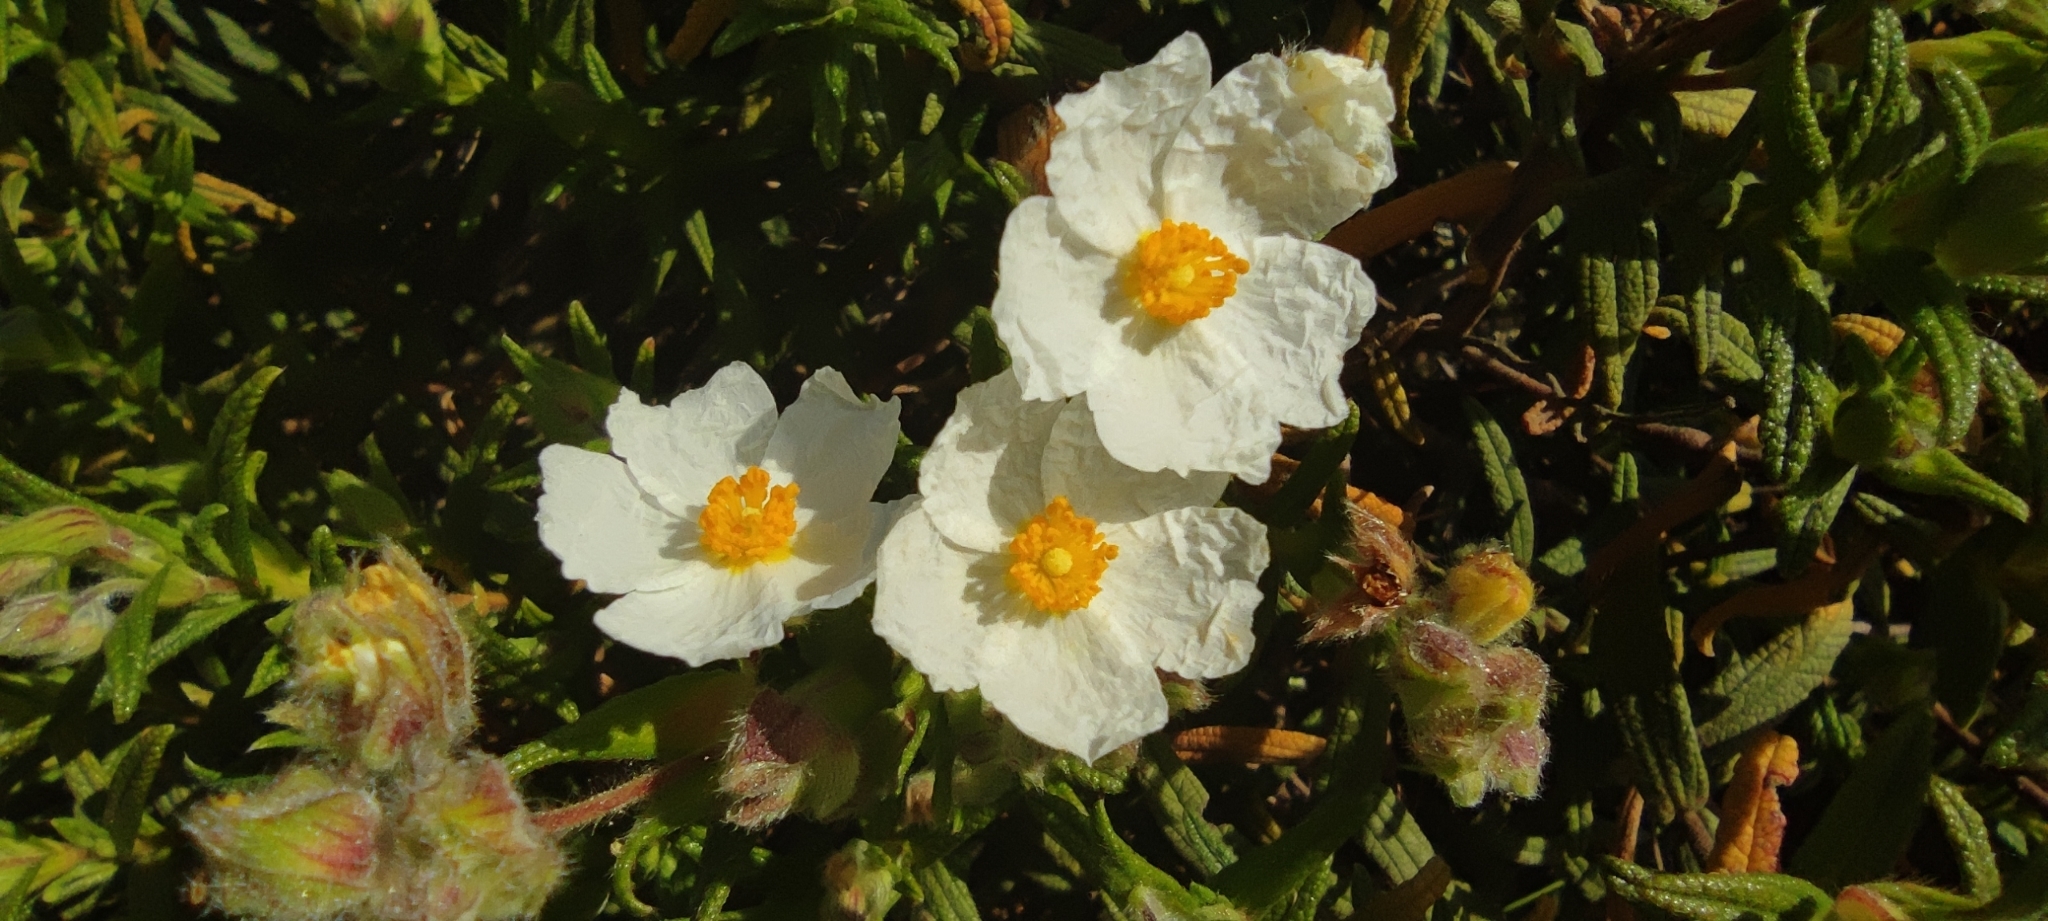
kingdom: Plantae
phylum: Tracheophyta
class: Magnoliopsida
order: Malvales
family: Cistaceae
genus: Cistus
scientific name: Cistus monspeliensis
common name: Montpelier cistus
